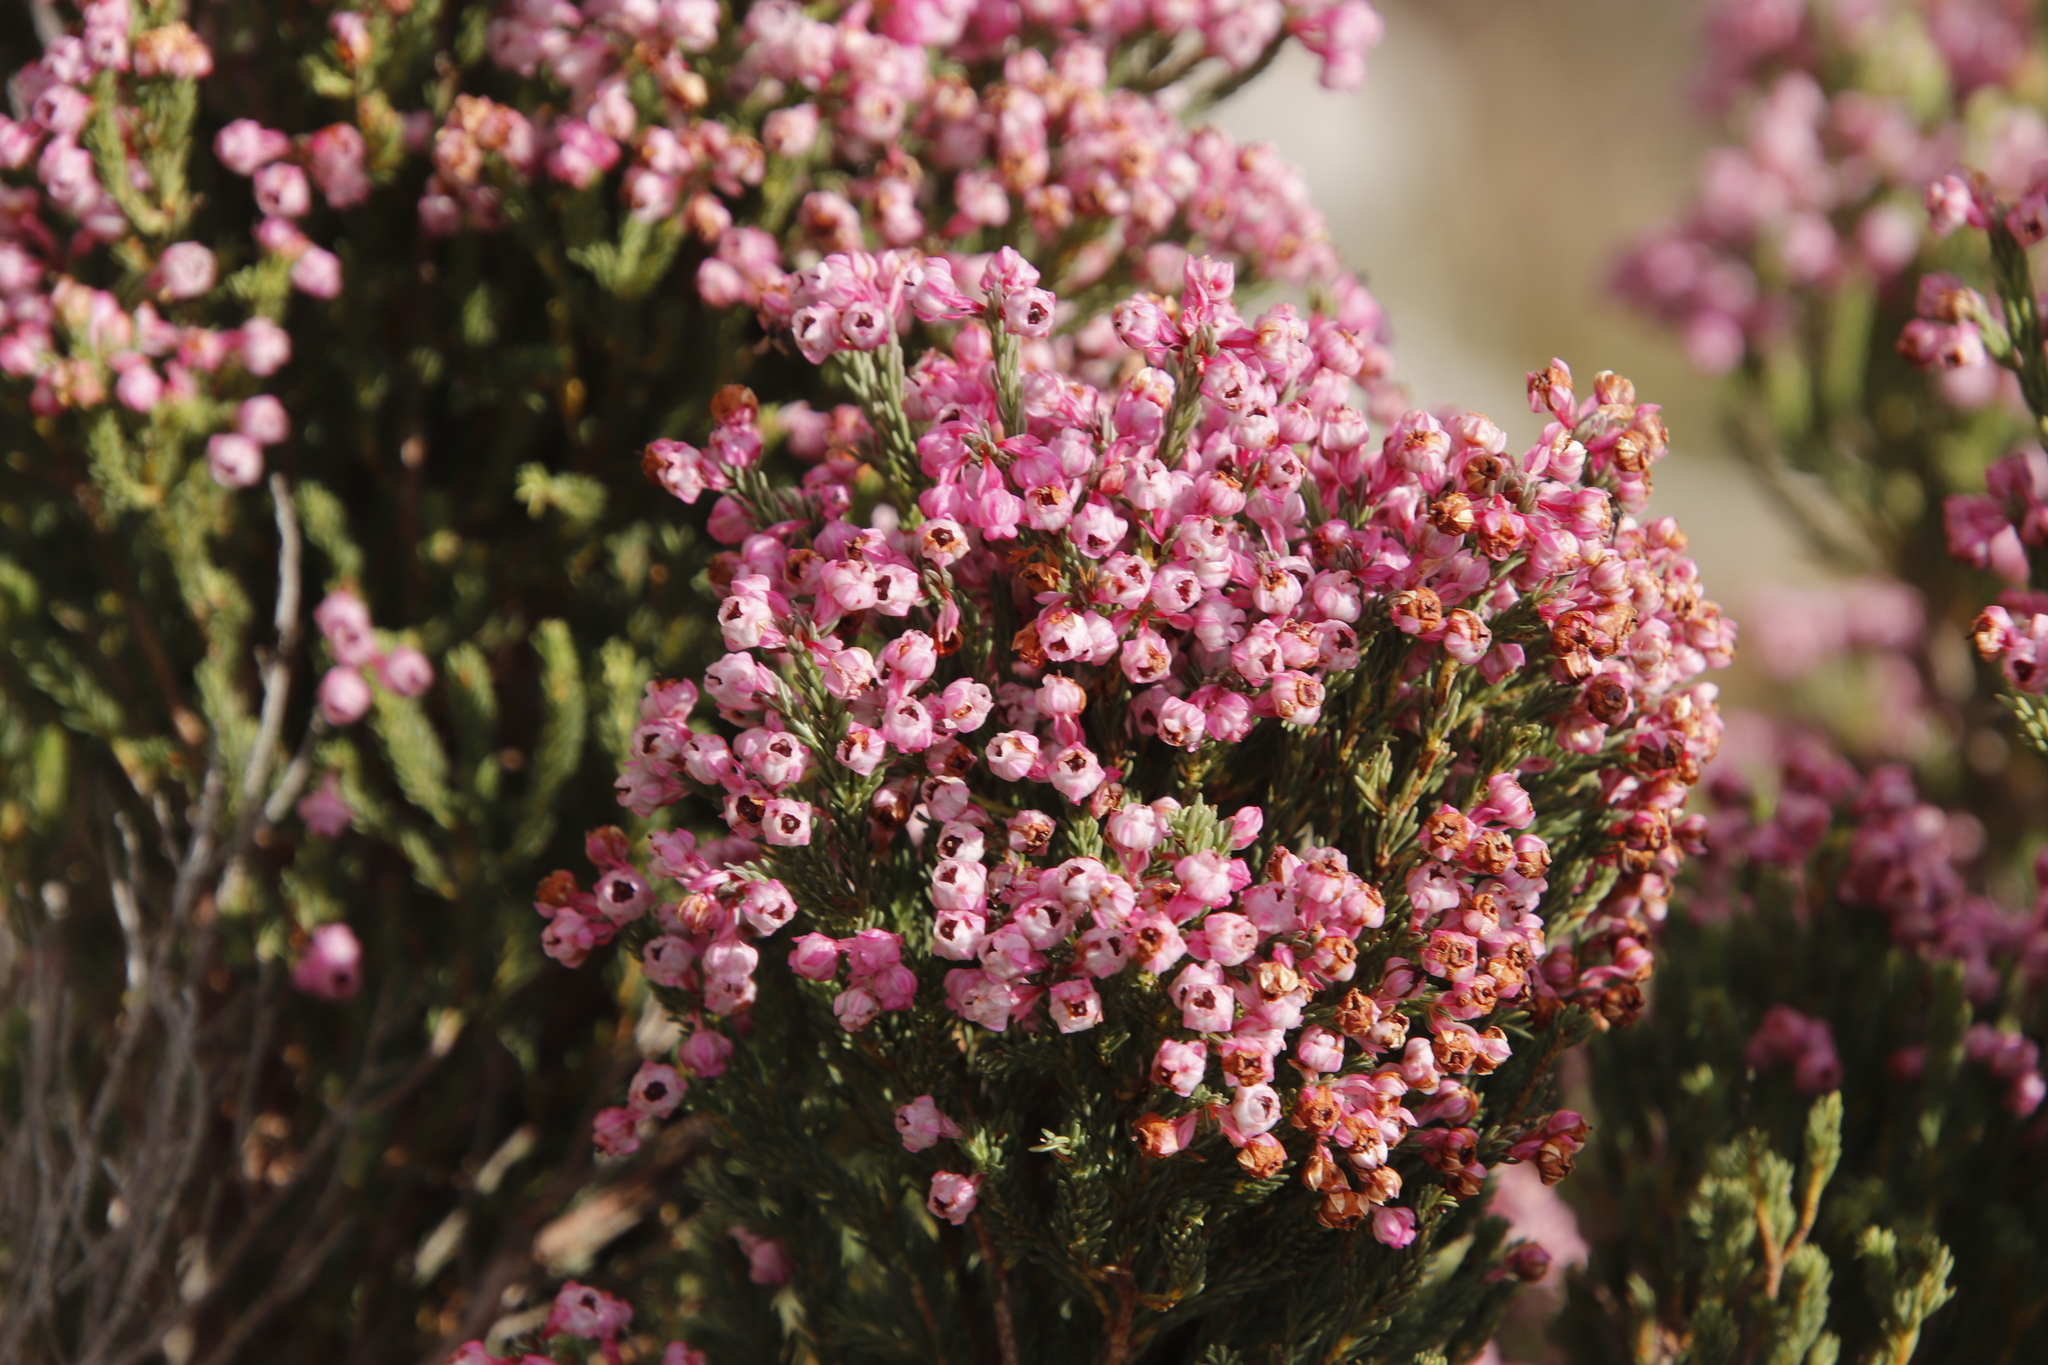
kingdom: Plantae
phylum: Tracheophyta
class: Magnoliopsida
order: Ericales
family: Ericaceae
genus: Erica
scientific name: Erica baccans
